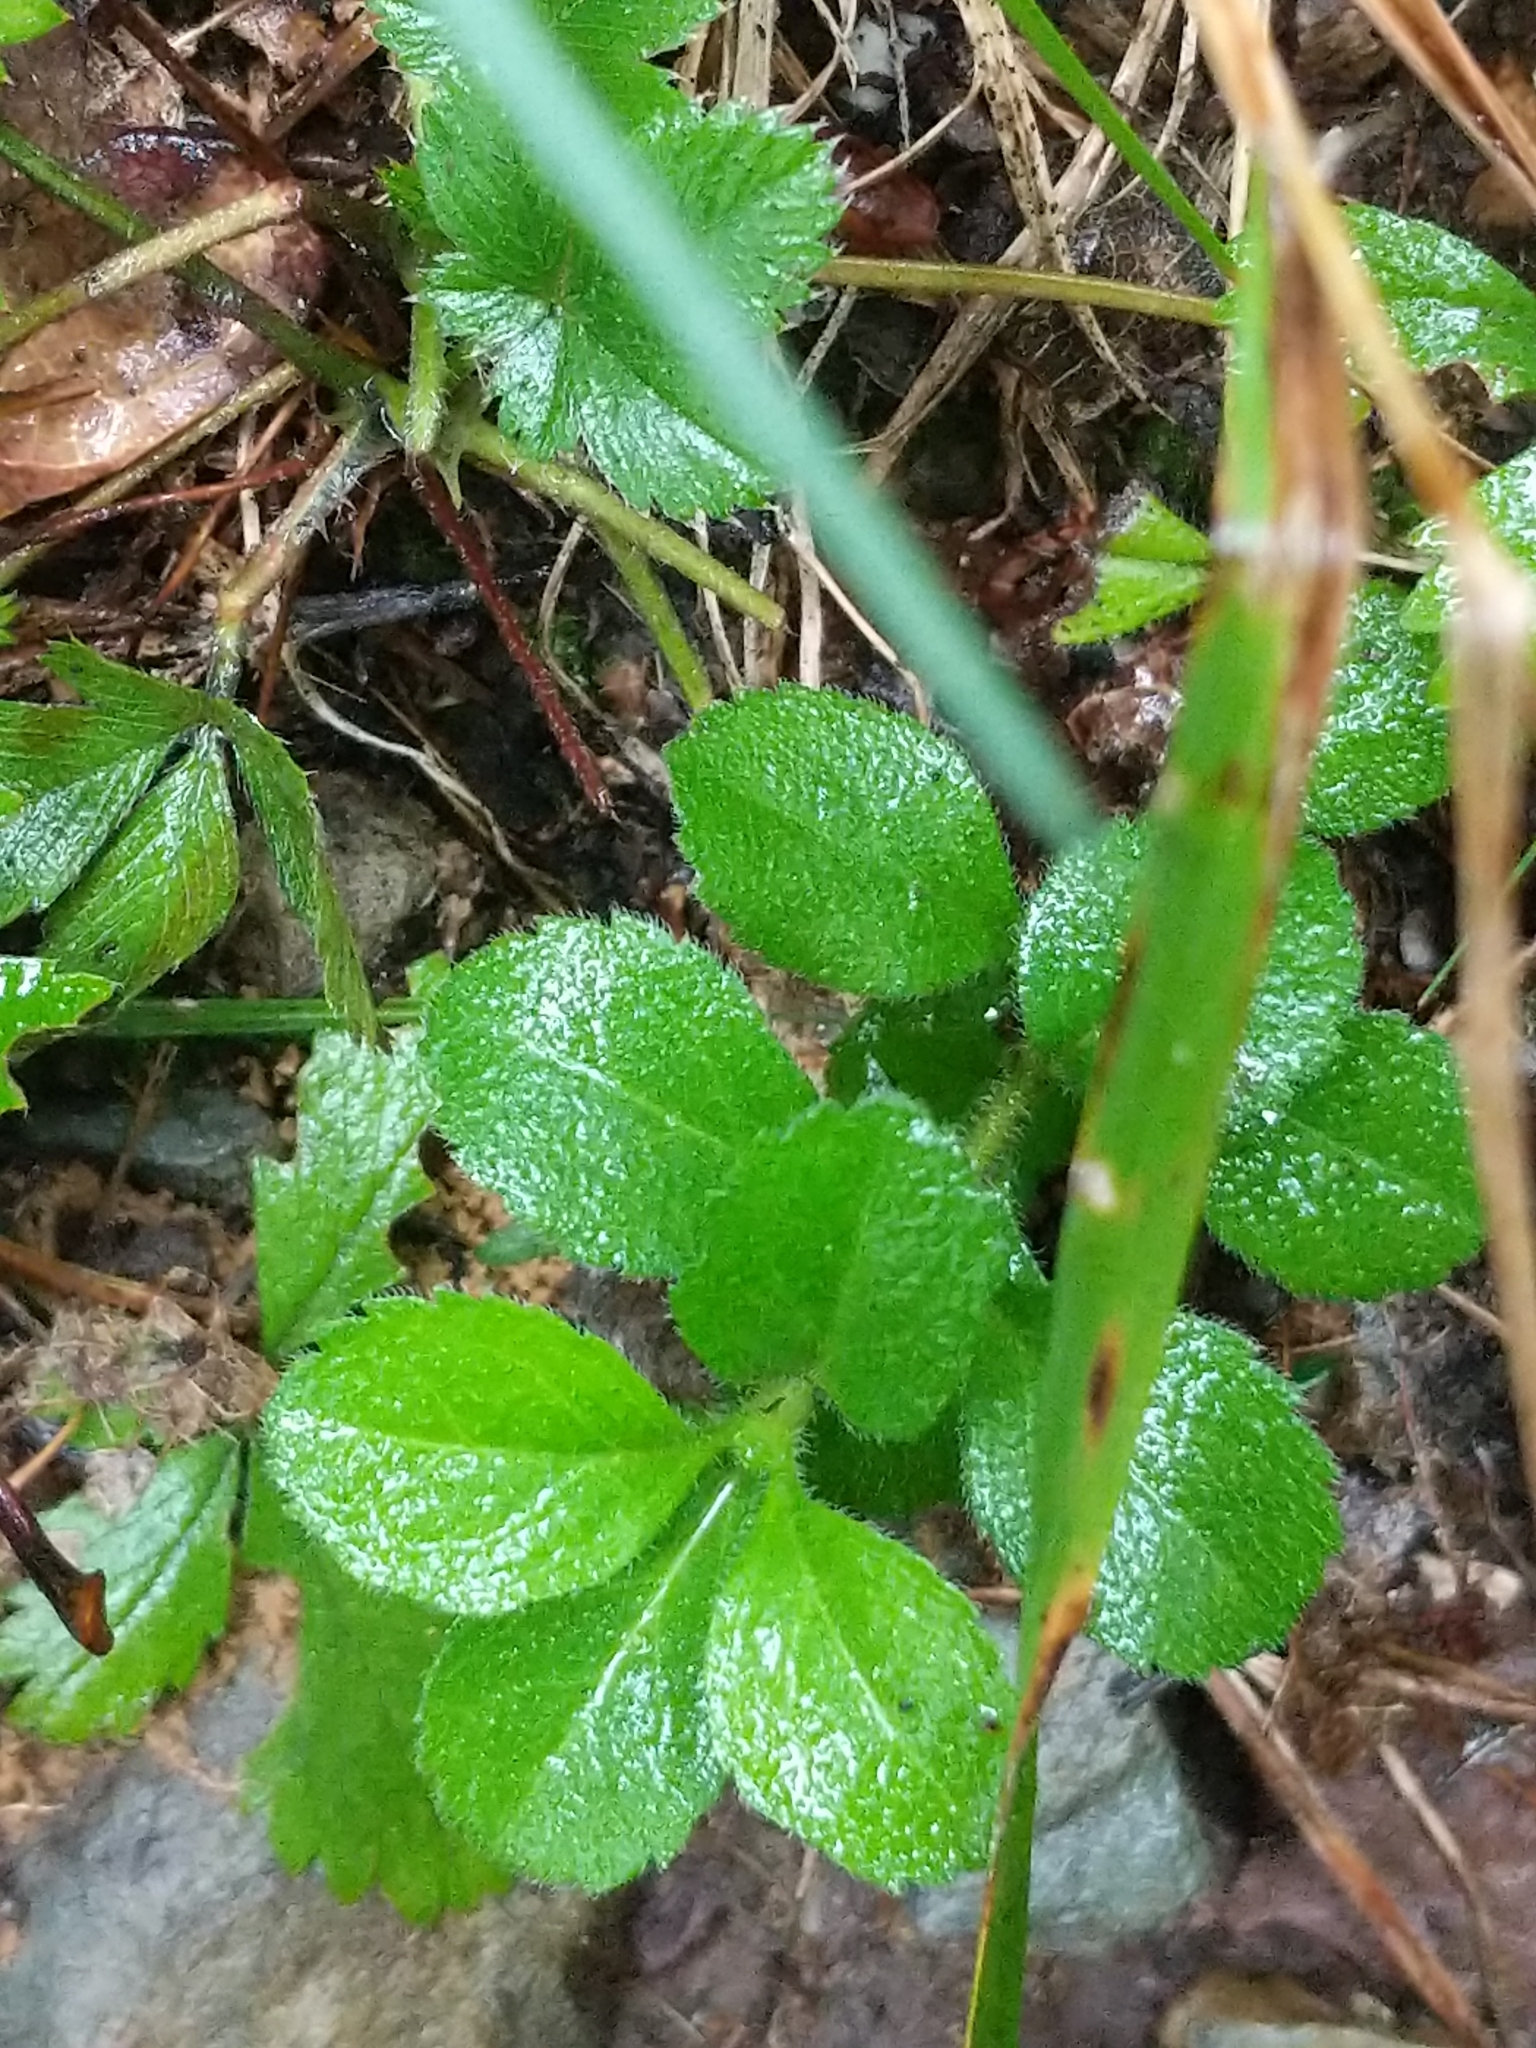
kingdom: Plantae
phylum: Tracheophyta
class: Magnoliopsida
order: Lamiales
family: Plantaginaceae
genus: Veronica
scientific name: Veronica officinalis
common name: Common speedwell
